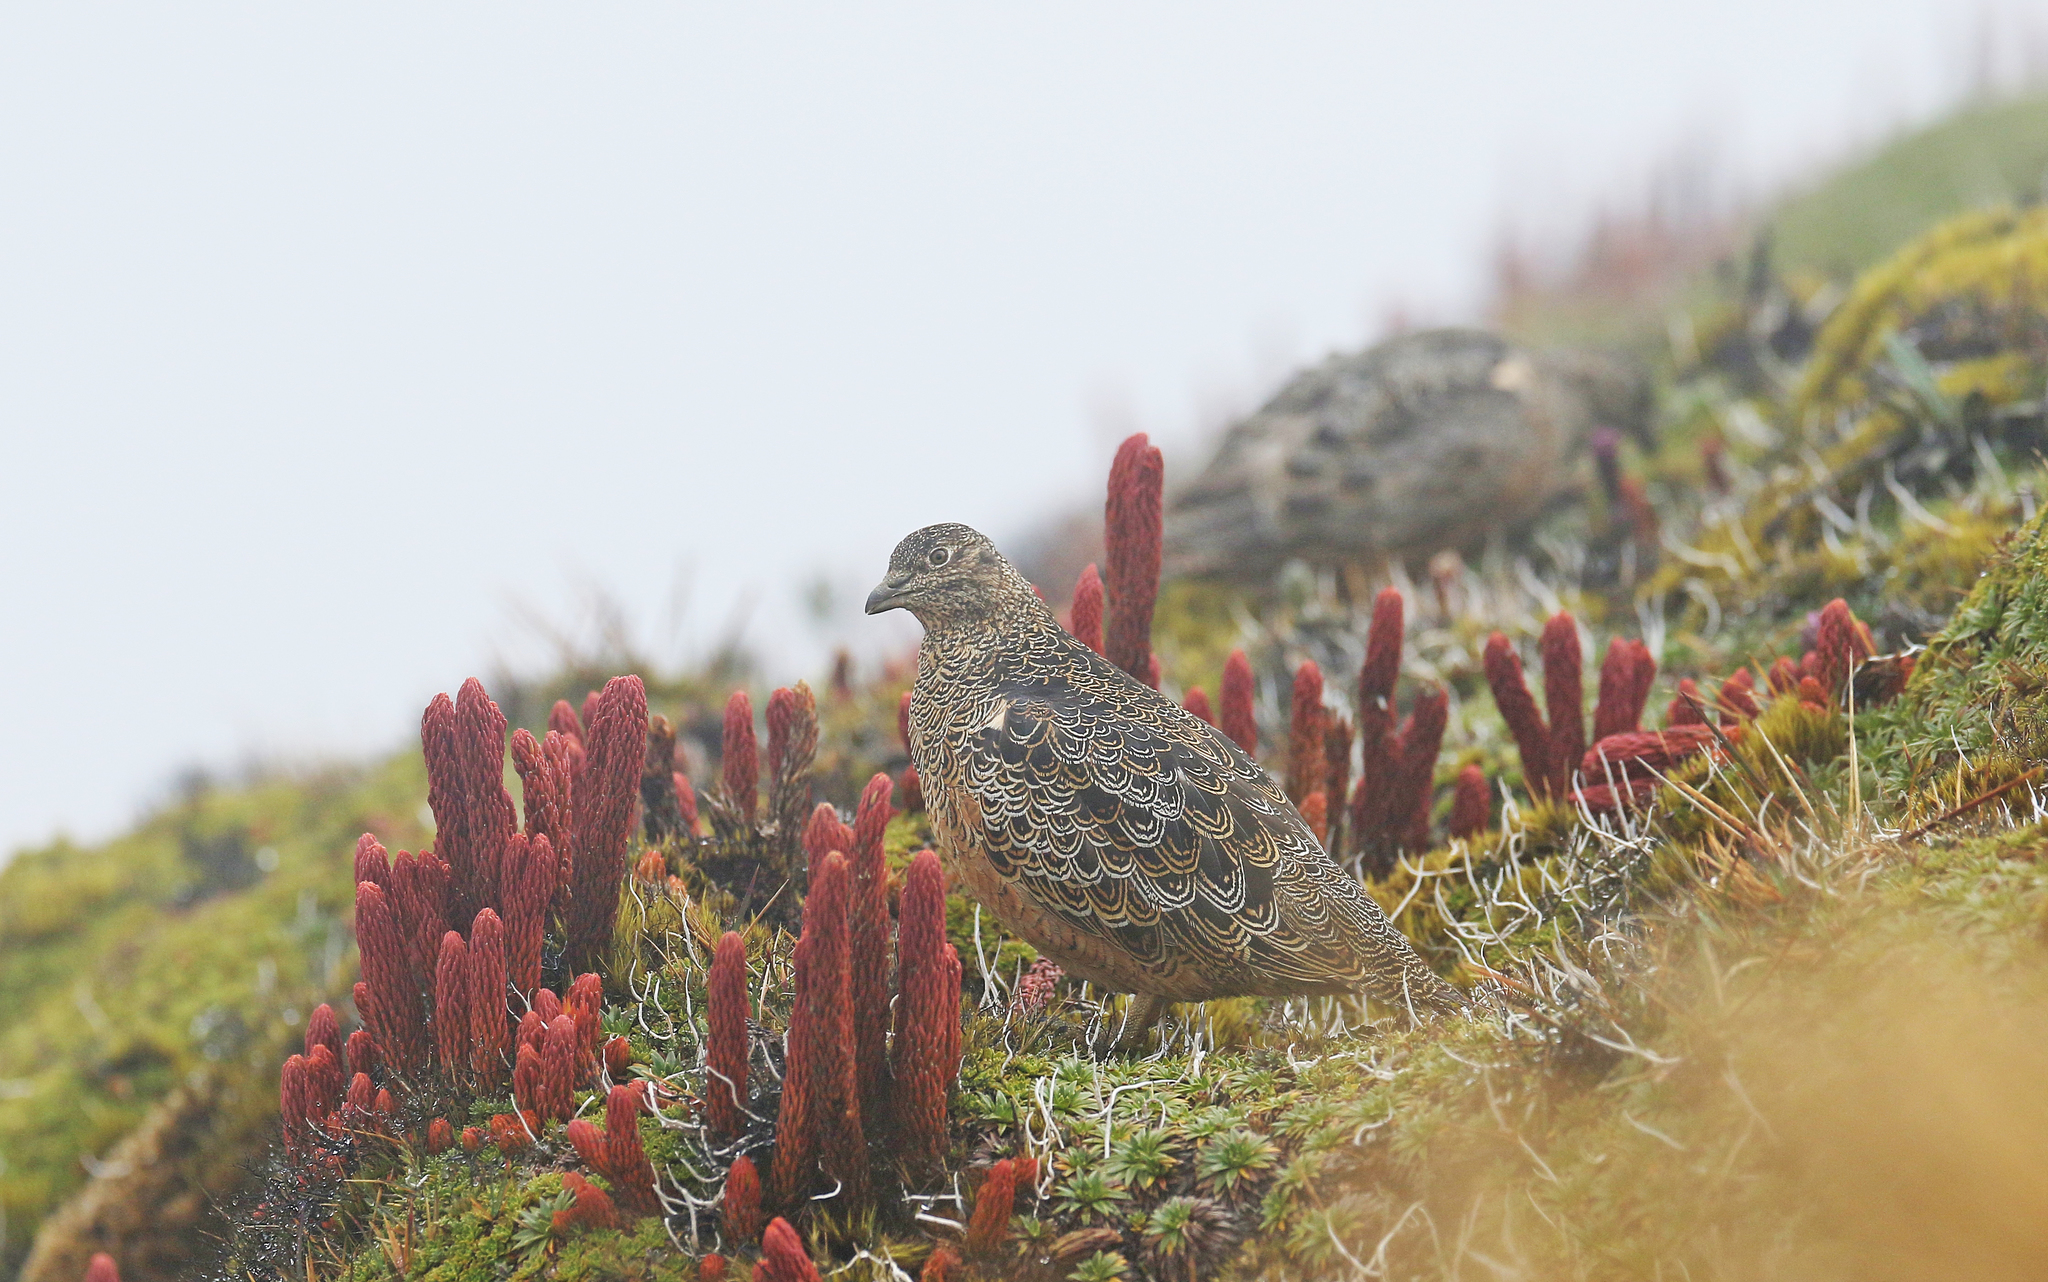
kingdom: Animalia
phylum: Chordata
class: Aves
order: Charadriiformes
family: Thinocoridae
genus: Attagis
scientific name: Attagis gayi
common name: Rufous-bellied seedsnipe
